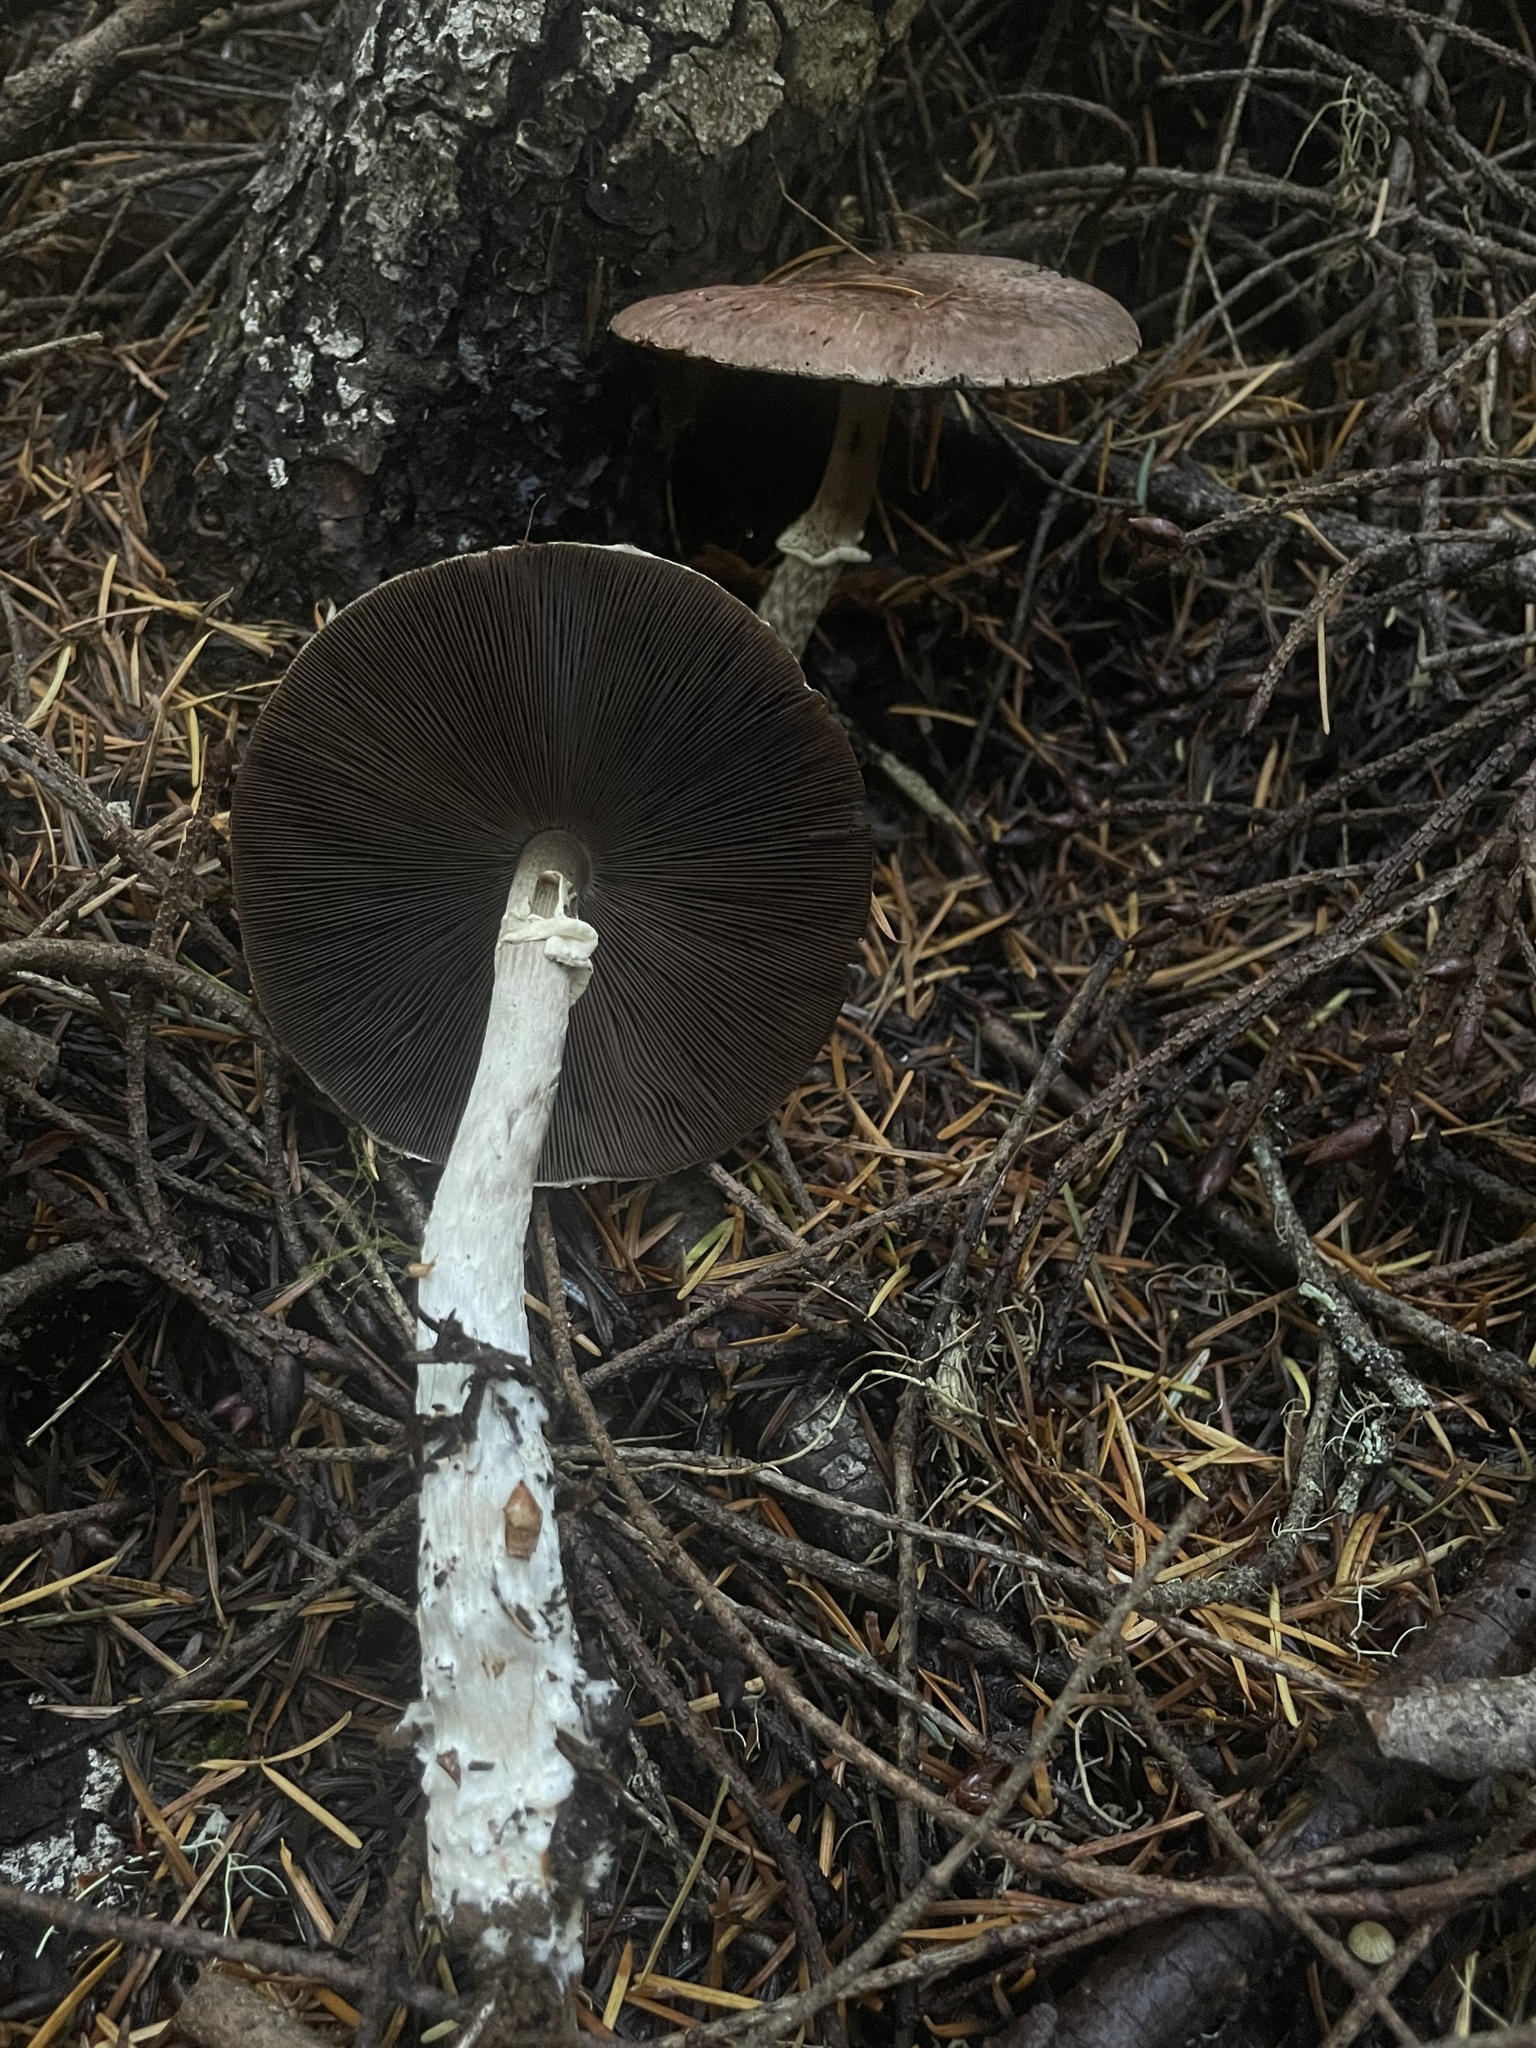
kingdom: Fungi
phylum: Basidiomycota
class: Agaricomycetes
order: Agaricales
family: Agaricaceae
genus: Agaricus
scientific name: Agaricus subrutilescens
